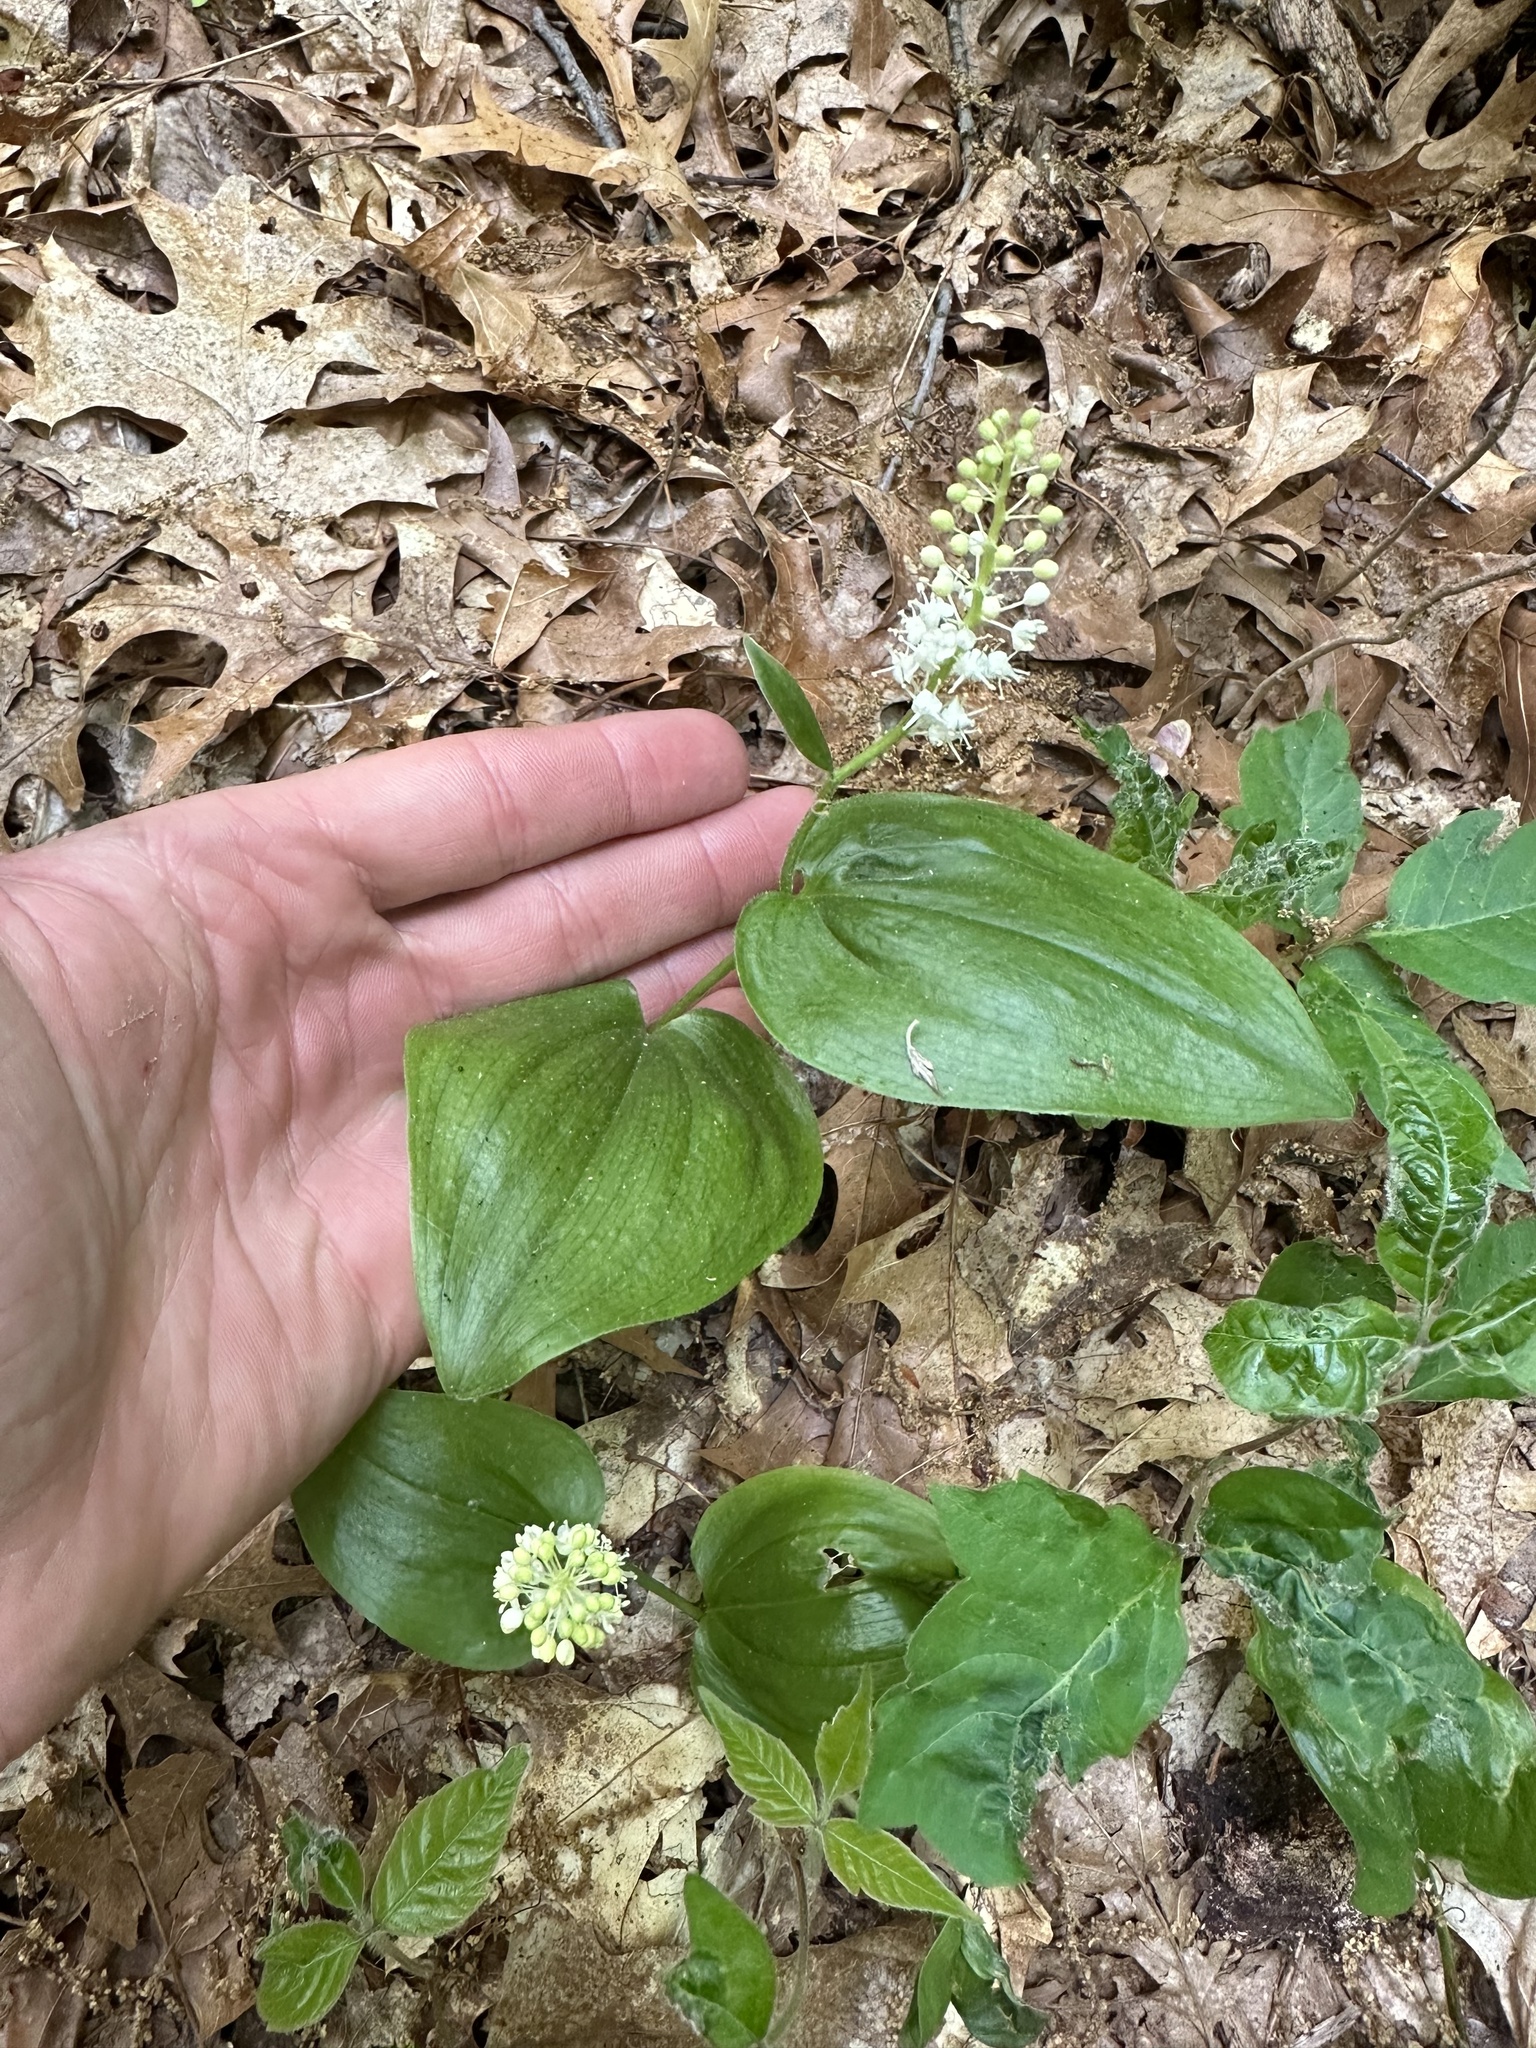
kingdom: Plantae
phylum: Tracheophyta
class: Liliopsida
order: Asparagales
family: Asparagaceae
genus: Maianthemum
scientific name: Maianthemum canadense
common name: False lily-of-the-valley
